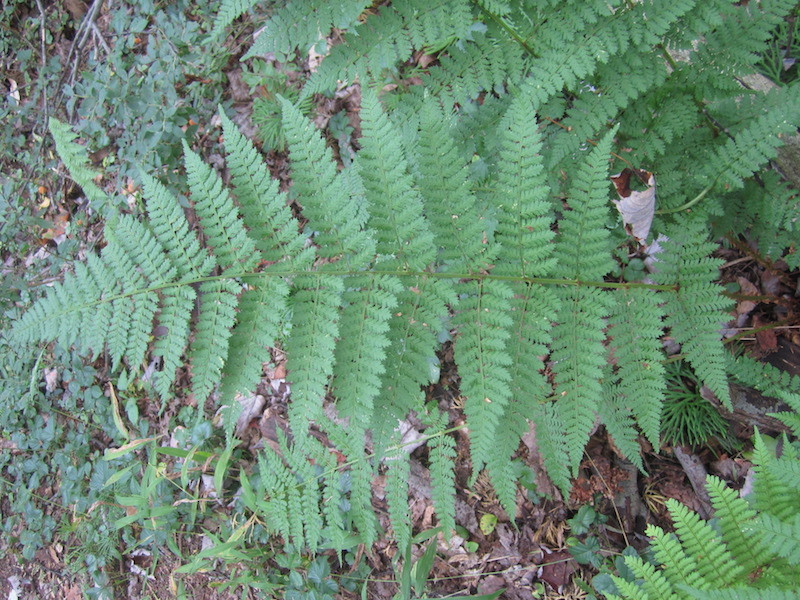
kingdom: Plantae
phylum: Tracheophyta
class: Polypodiopsida
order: Polypodiales
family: Dryopteridaceae
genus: Dryopteris
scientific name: Dryopteris intermedia
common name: Evergreen wood fern
